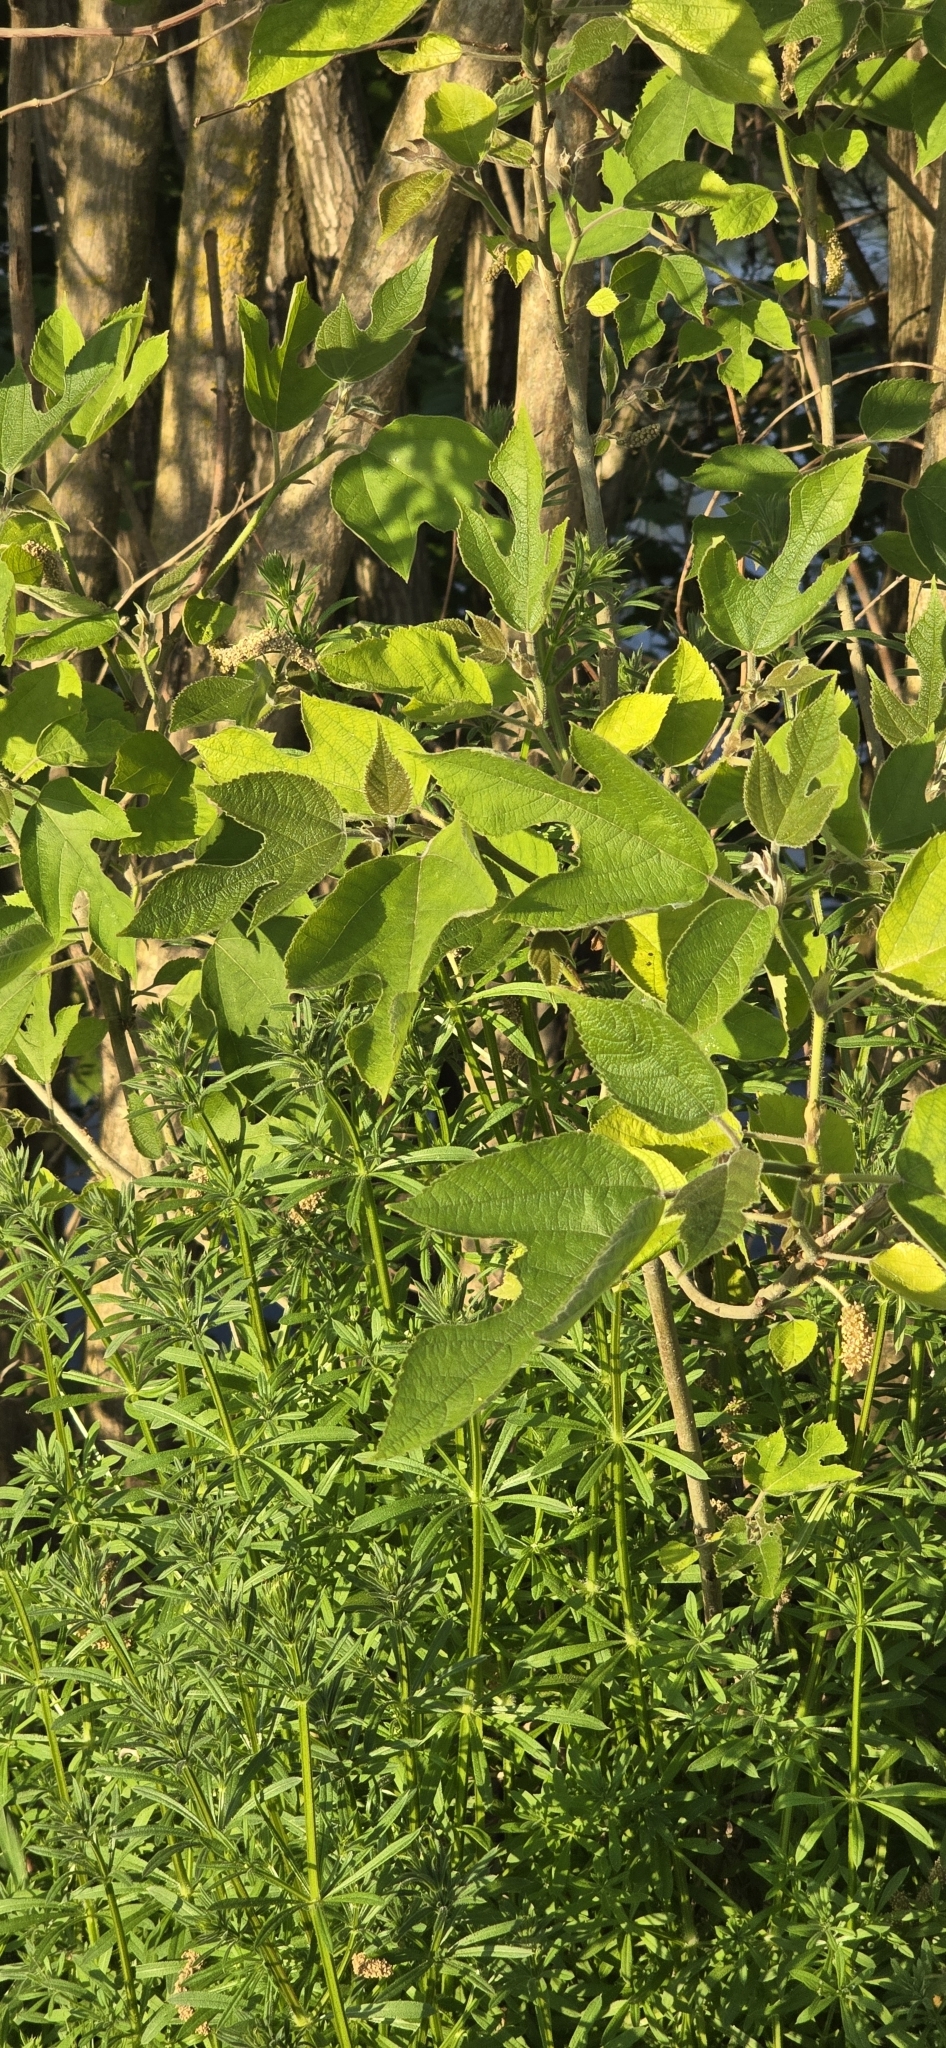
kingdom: Plantae
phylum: Tracheophyta
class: Magnoliopsida
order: Rosales
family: Moraceae
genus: Broussonetia
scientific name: Broussonetia papyrifera
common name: Paper mulberry
